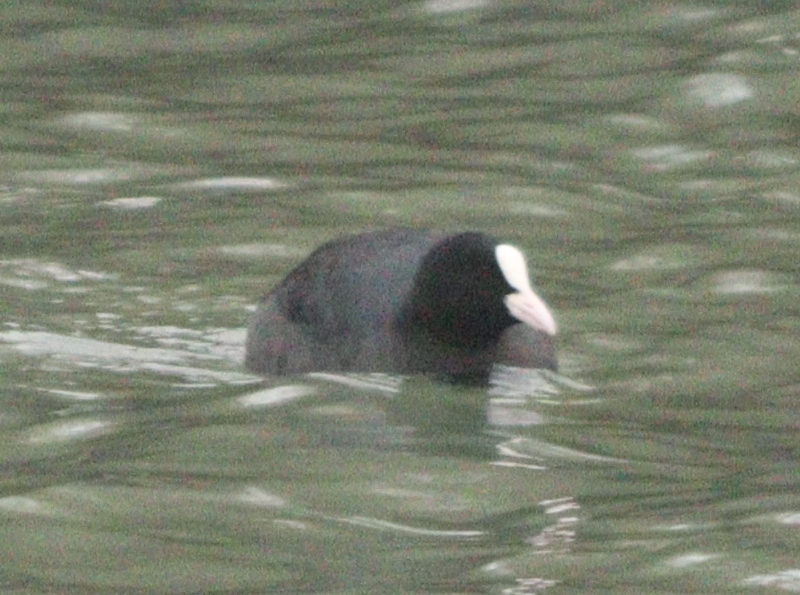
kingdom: Animalia
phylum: Chordata
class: Aves
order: Gruiformes
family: Rallidae
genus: Fulica
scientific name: Fulica atra
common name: Eurasian coot
